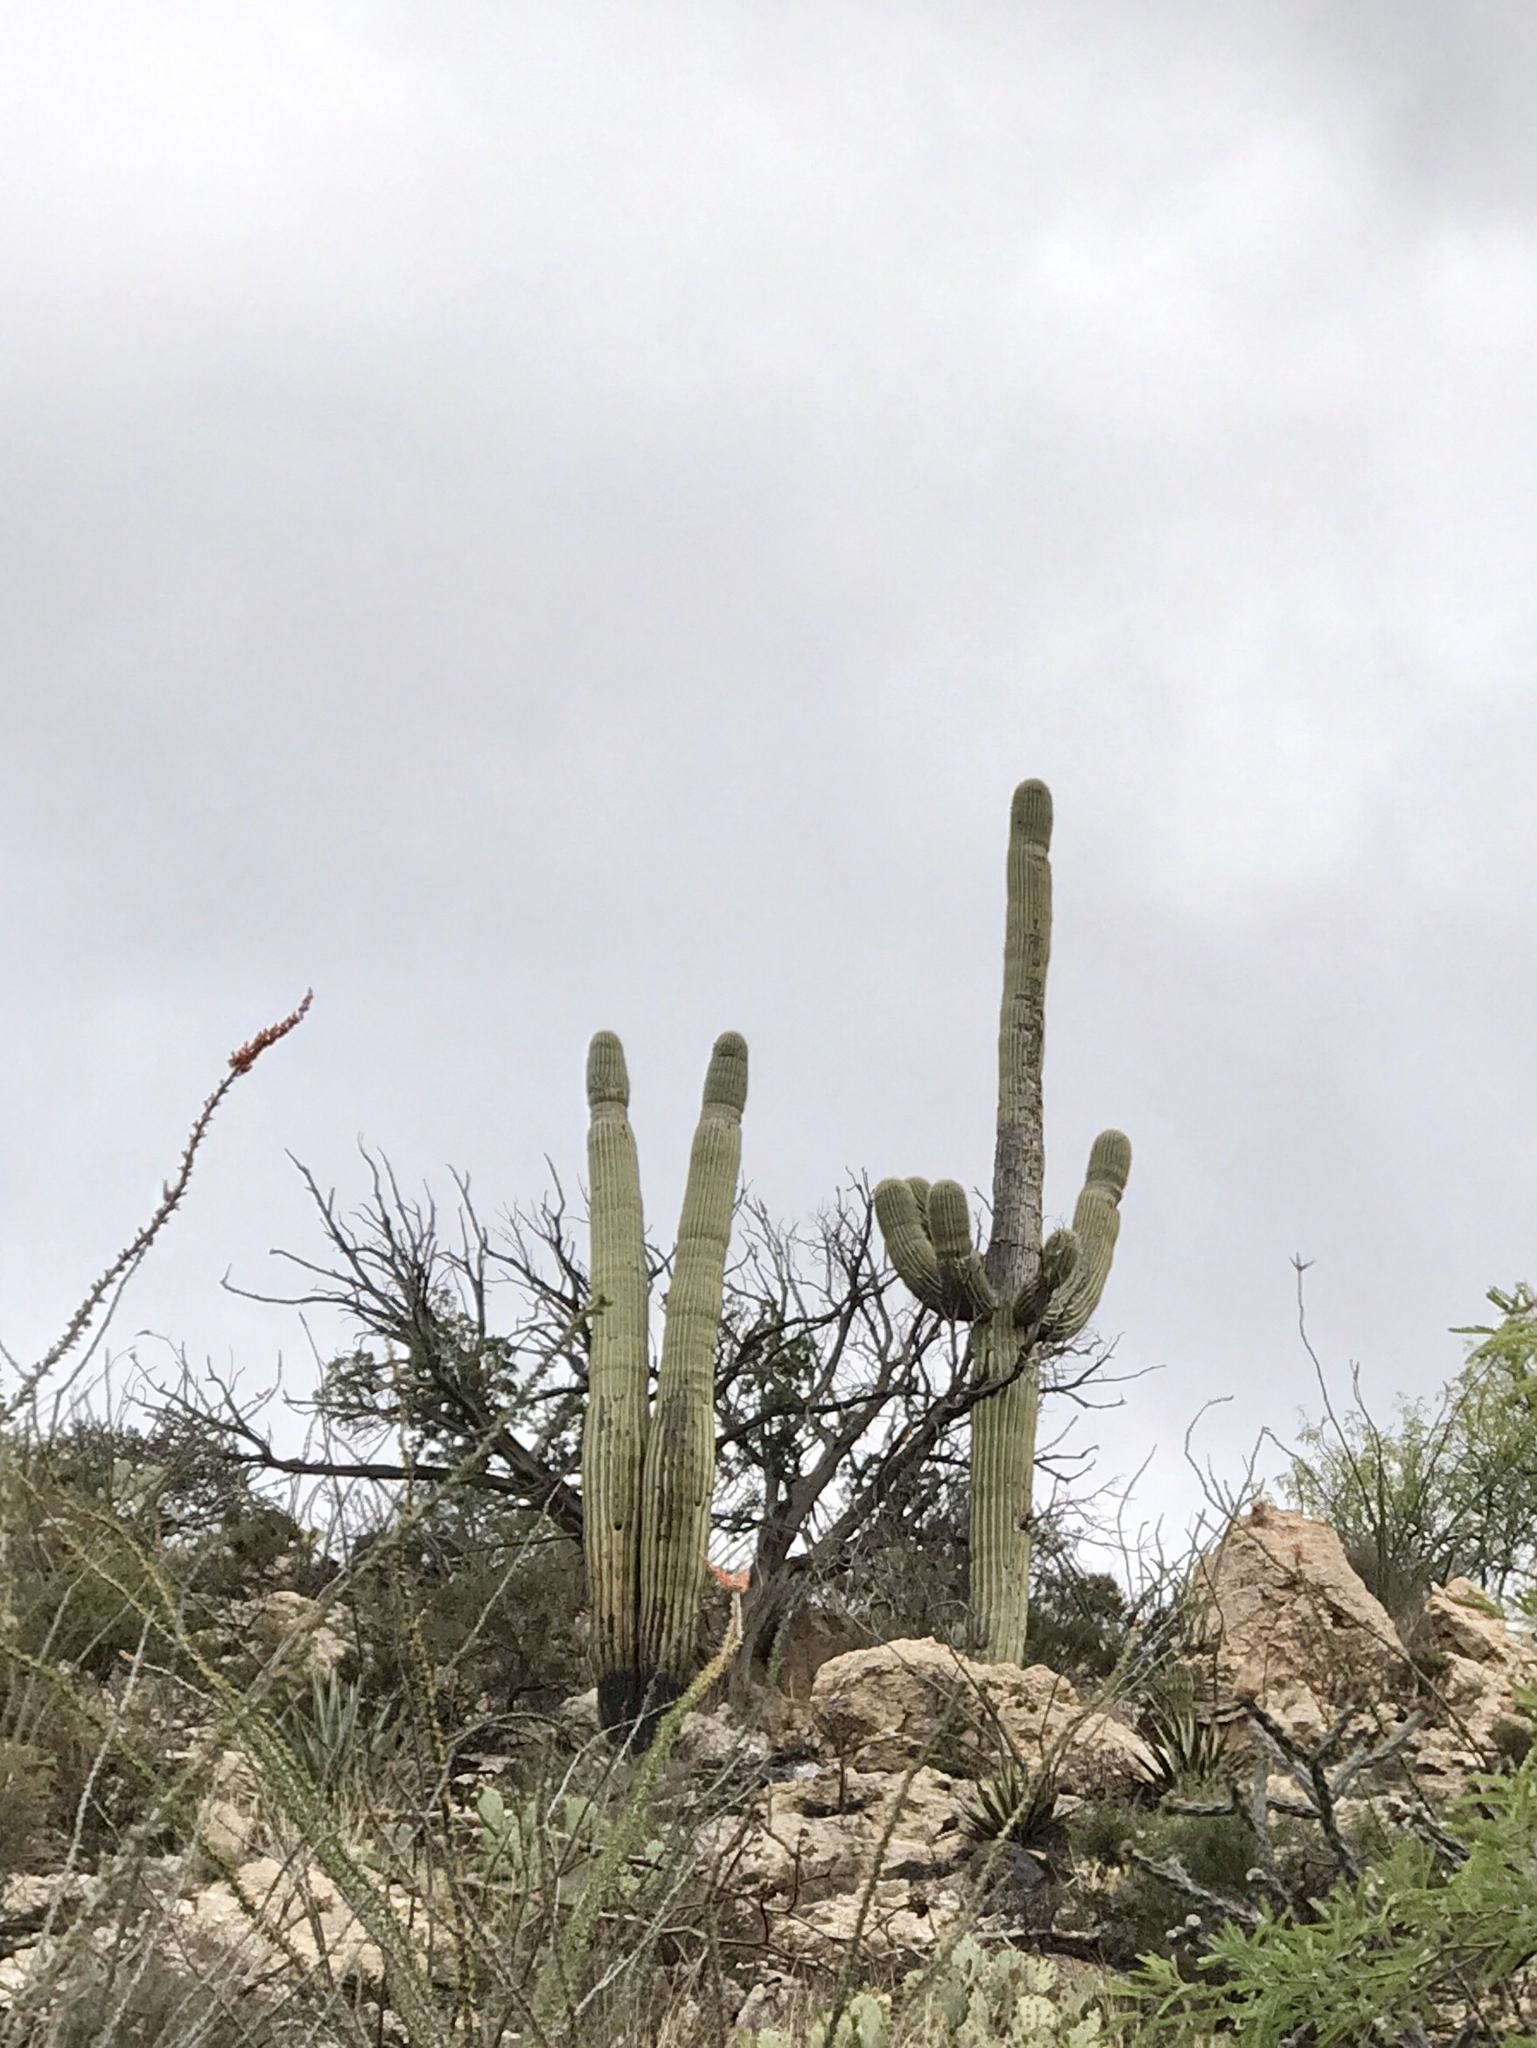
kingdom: Plantae
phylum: Tracheophyta
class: Magnoliopsida
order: Caryophyllales
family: Cactaceae
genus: Carnegiea
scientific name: Carnegiea gigantea
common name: Saguaro
